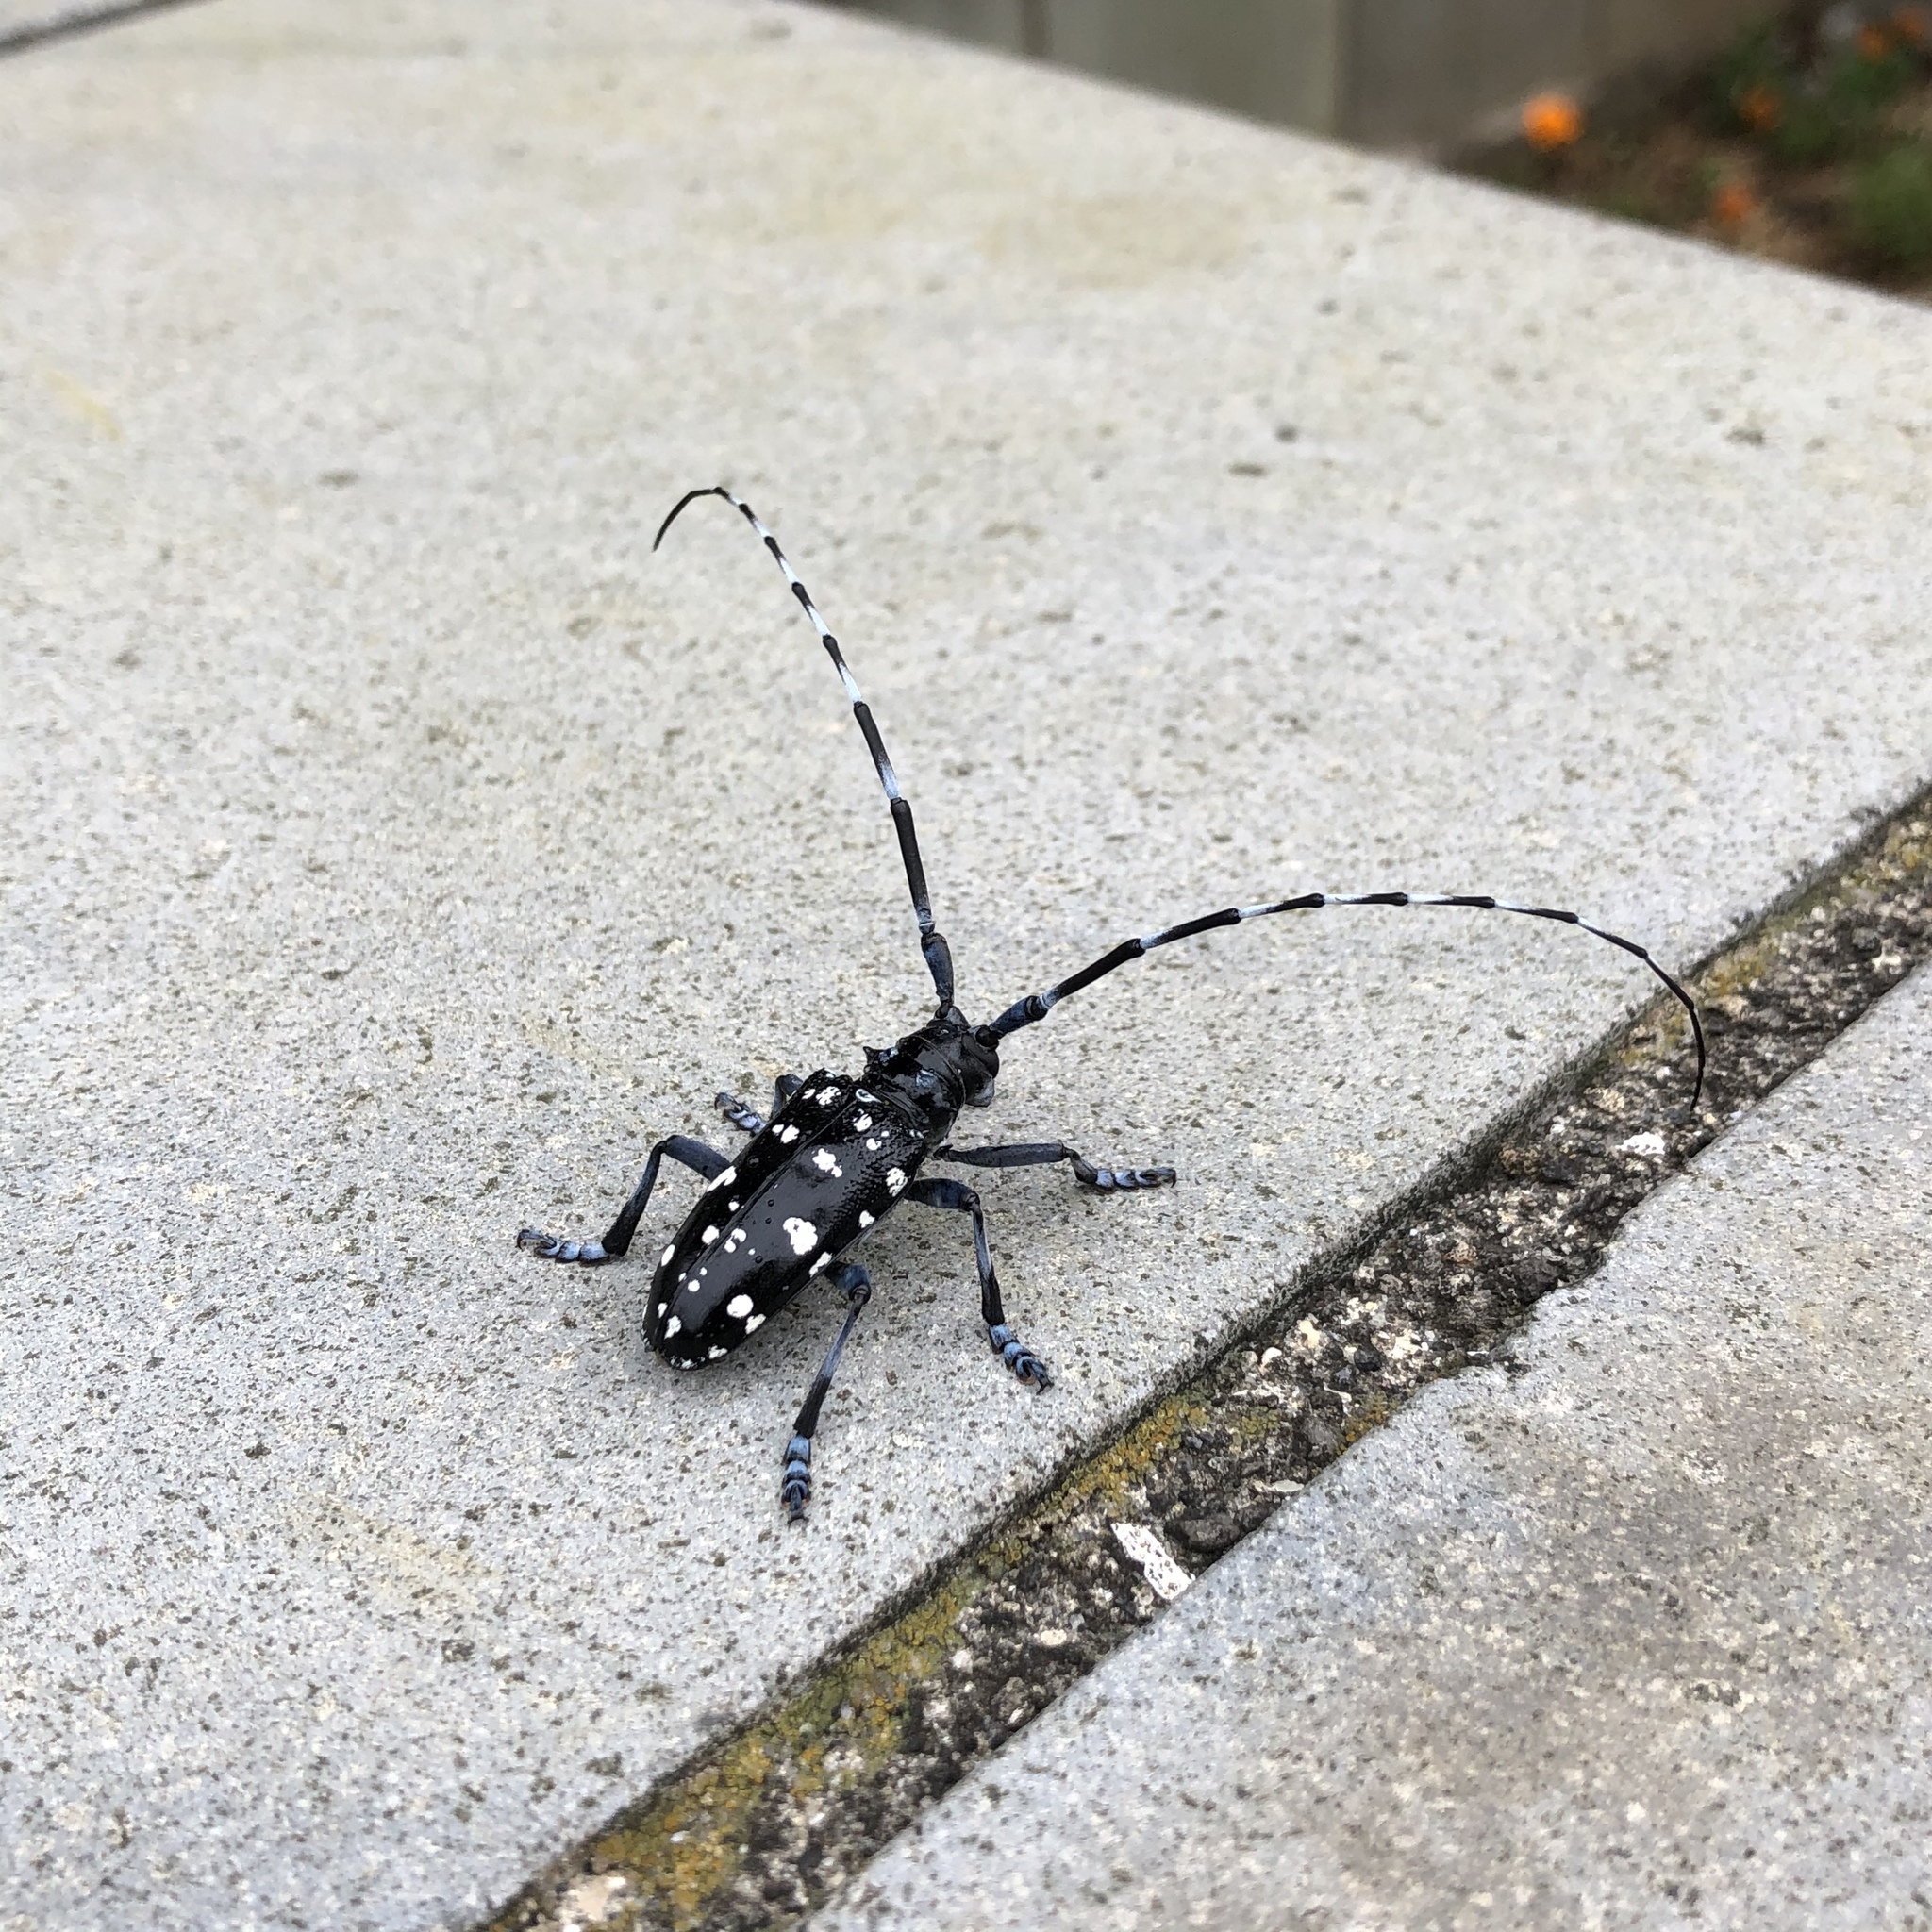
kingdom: Animalia
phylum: Arthropoda
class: Insecta
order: Coleoptera
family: Cerambycidae
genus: Anoplophora
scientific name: Anoplophora chinensis
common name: Citrus longhorned beetle
